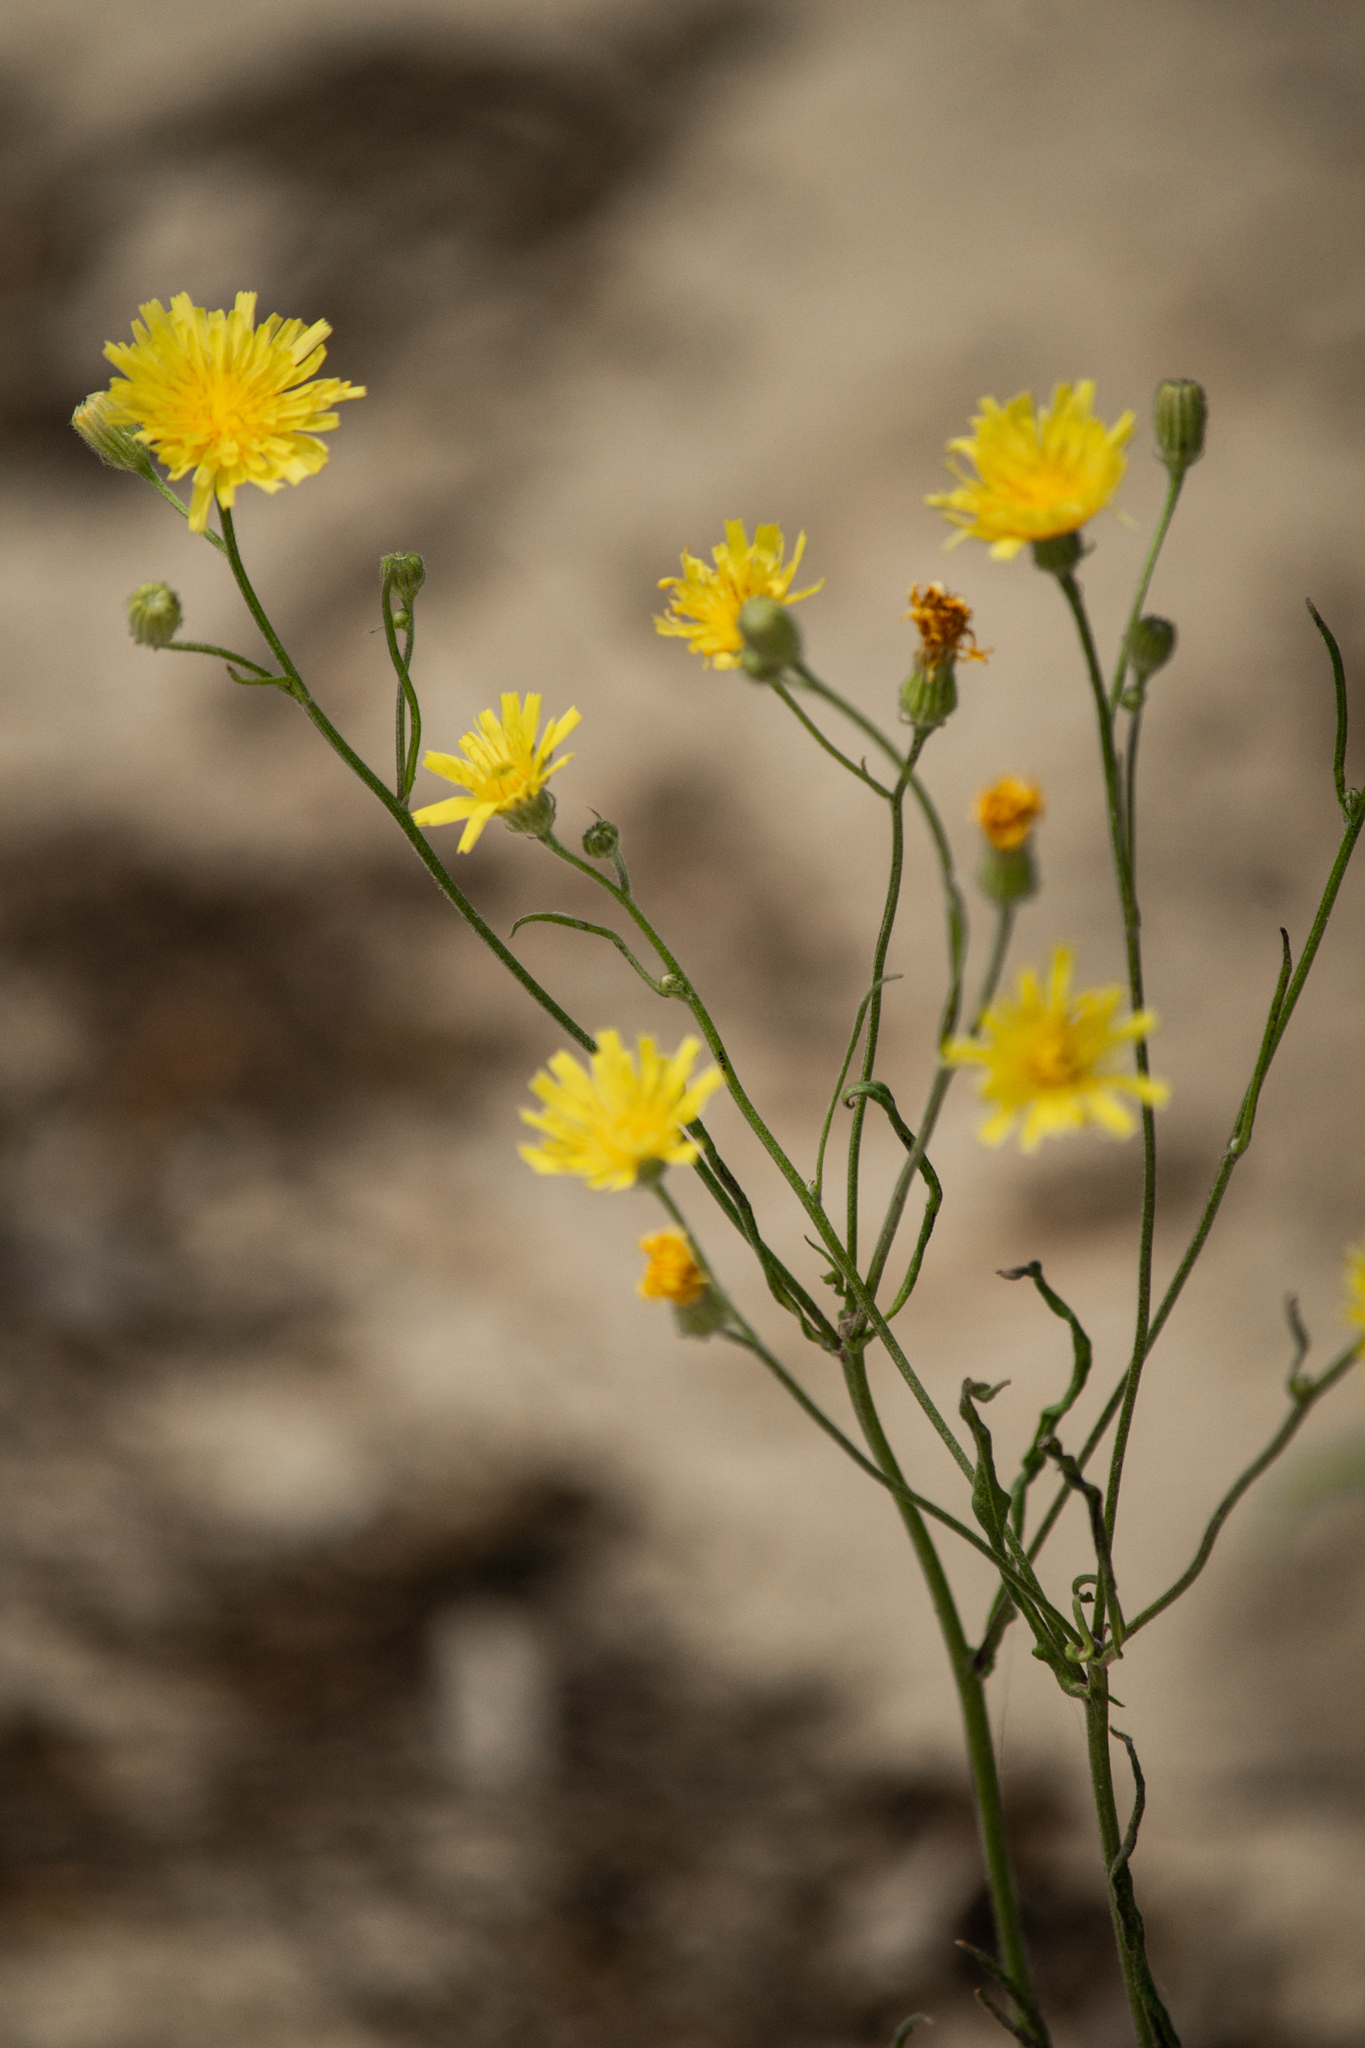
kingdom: Plantae
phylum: Tracheophyta
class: Magnoliopsida
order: Asterales
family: Asteraceae
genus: Crepis
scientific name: Crepis tectorum
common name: Narrow-leaved hawk's-beard
